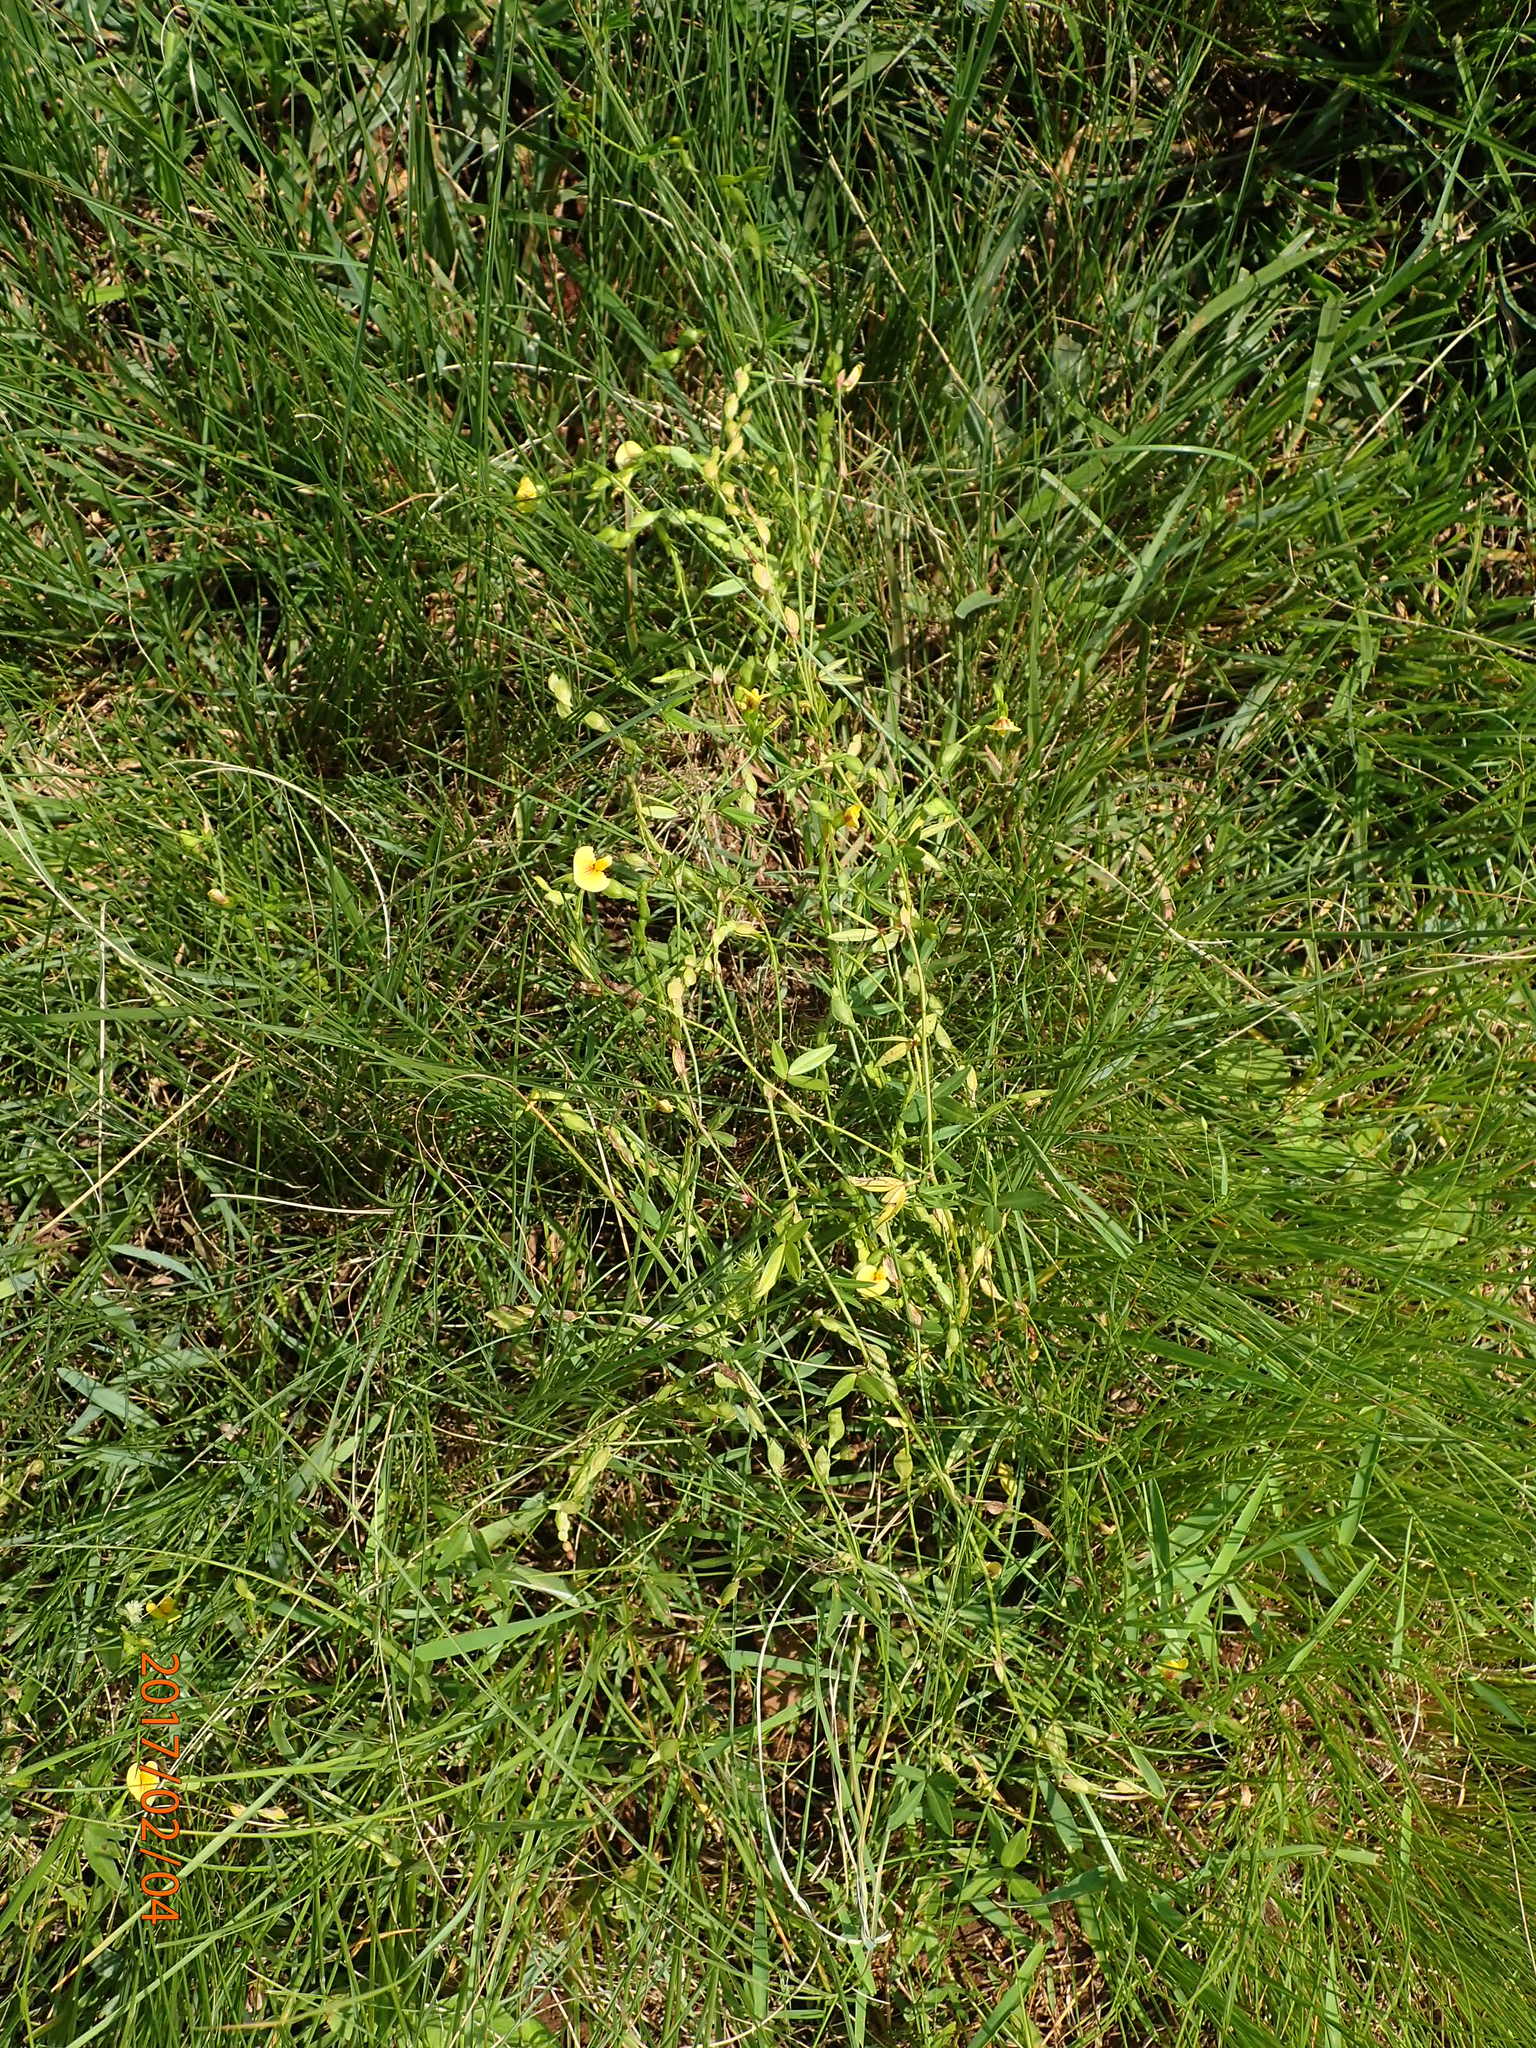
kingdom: Plantae
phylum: Tracheophyta
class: Magnoliopsida
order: Fabales
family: Fabaceae
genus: Zornia
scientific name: Zornia milneana
